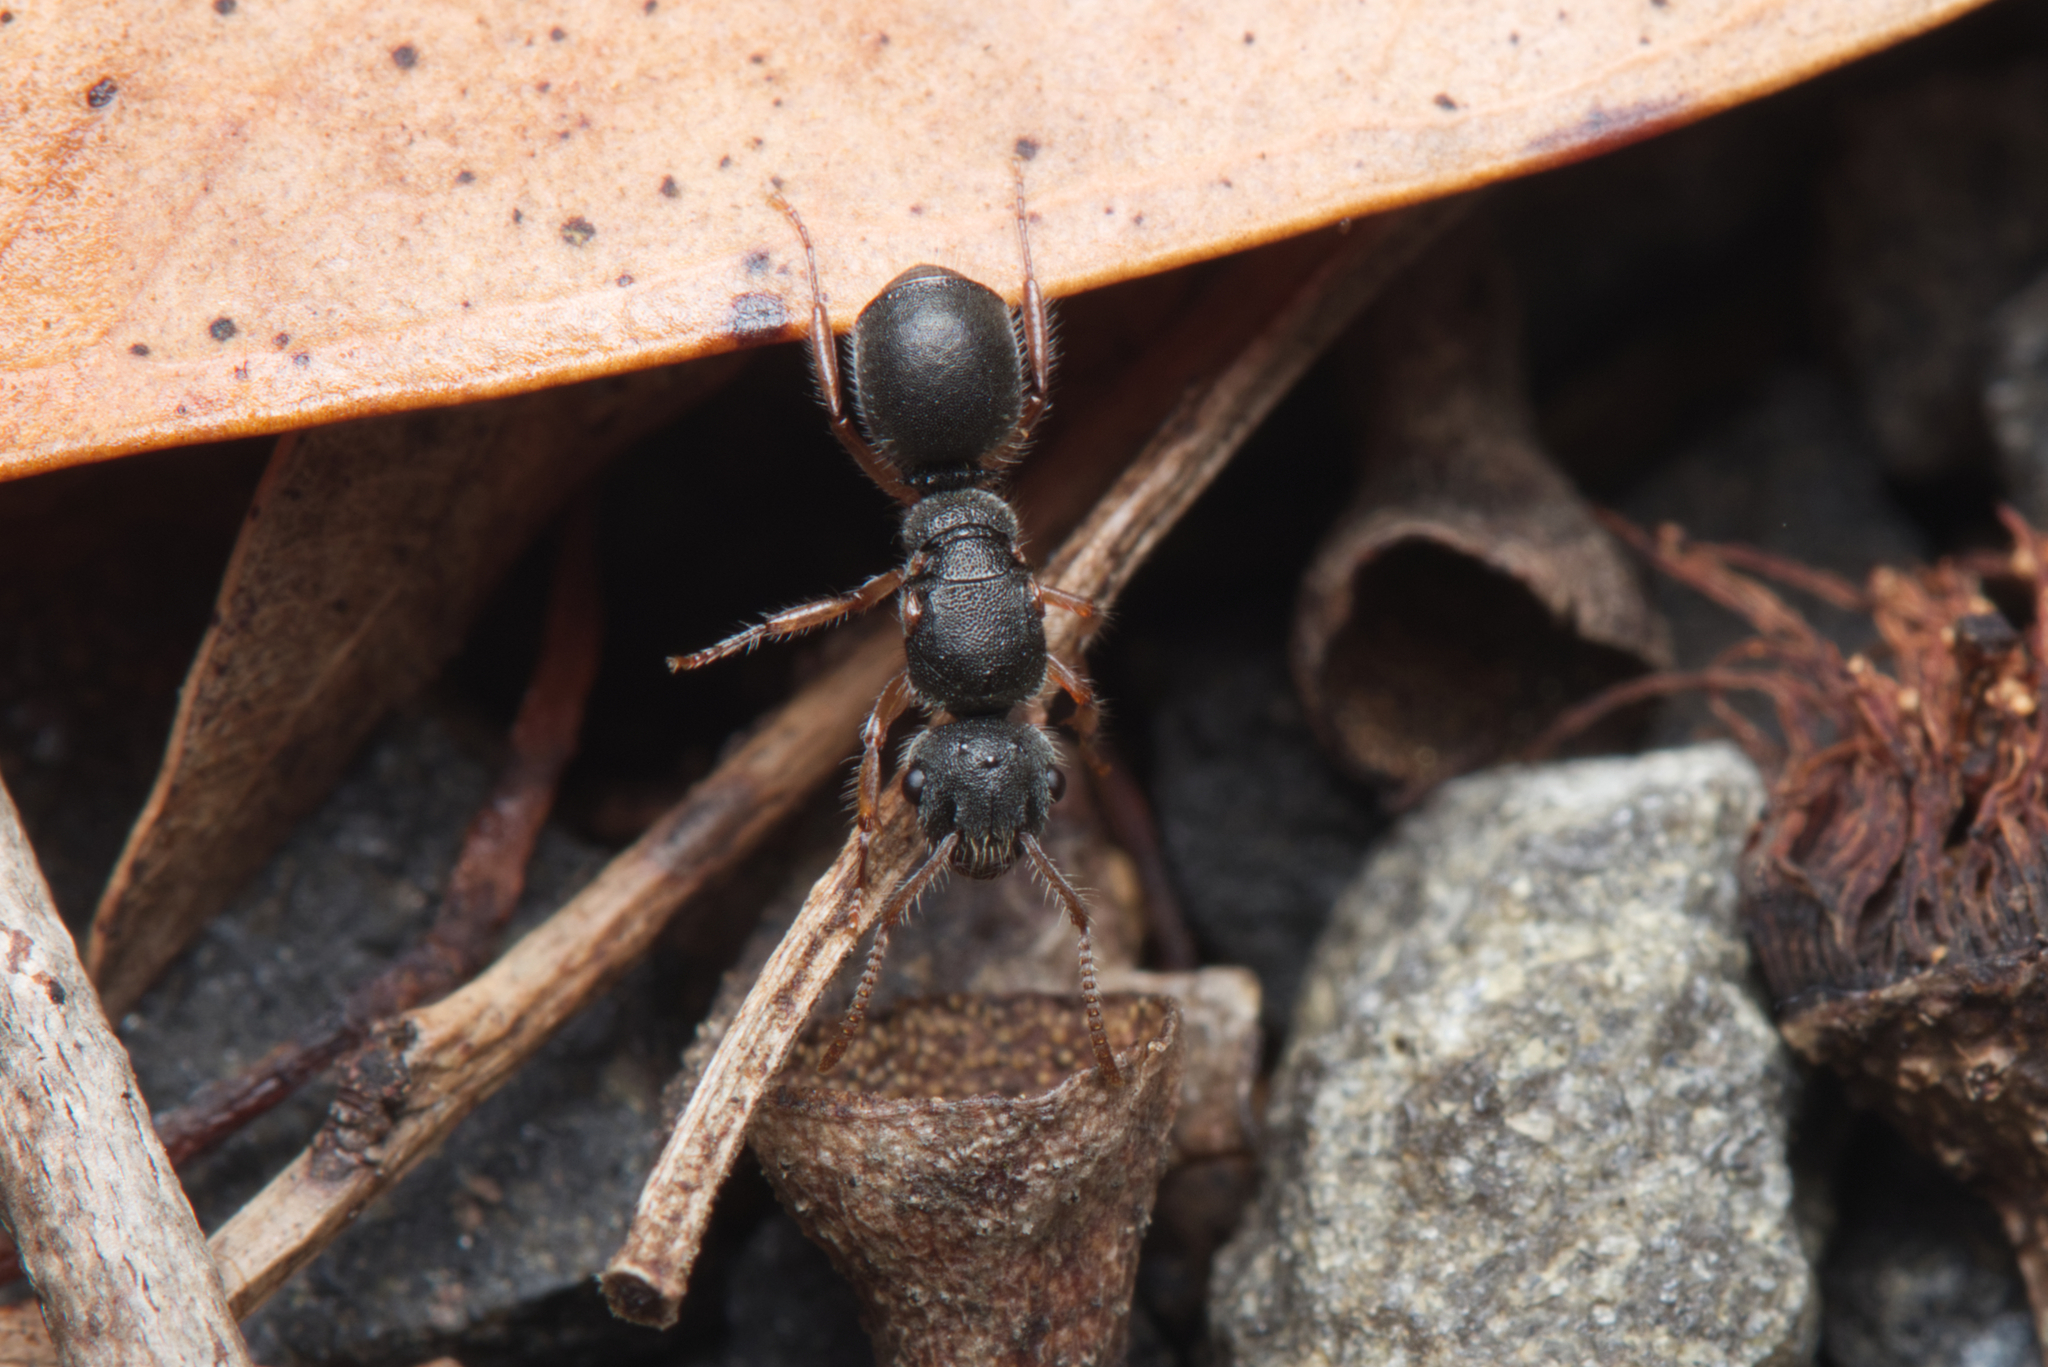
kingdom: Animalia
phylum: Arthropoda
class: Insecta
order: Hymenoptera
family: Formicidae
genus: Echinopla
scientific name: Echinopla turneri
